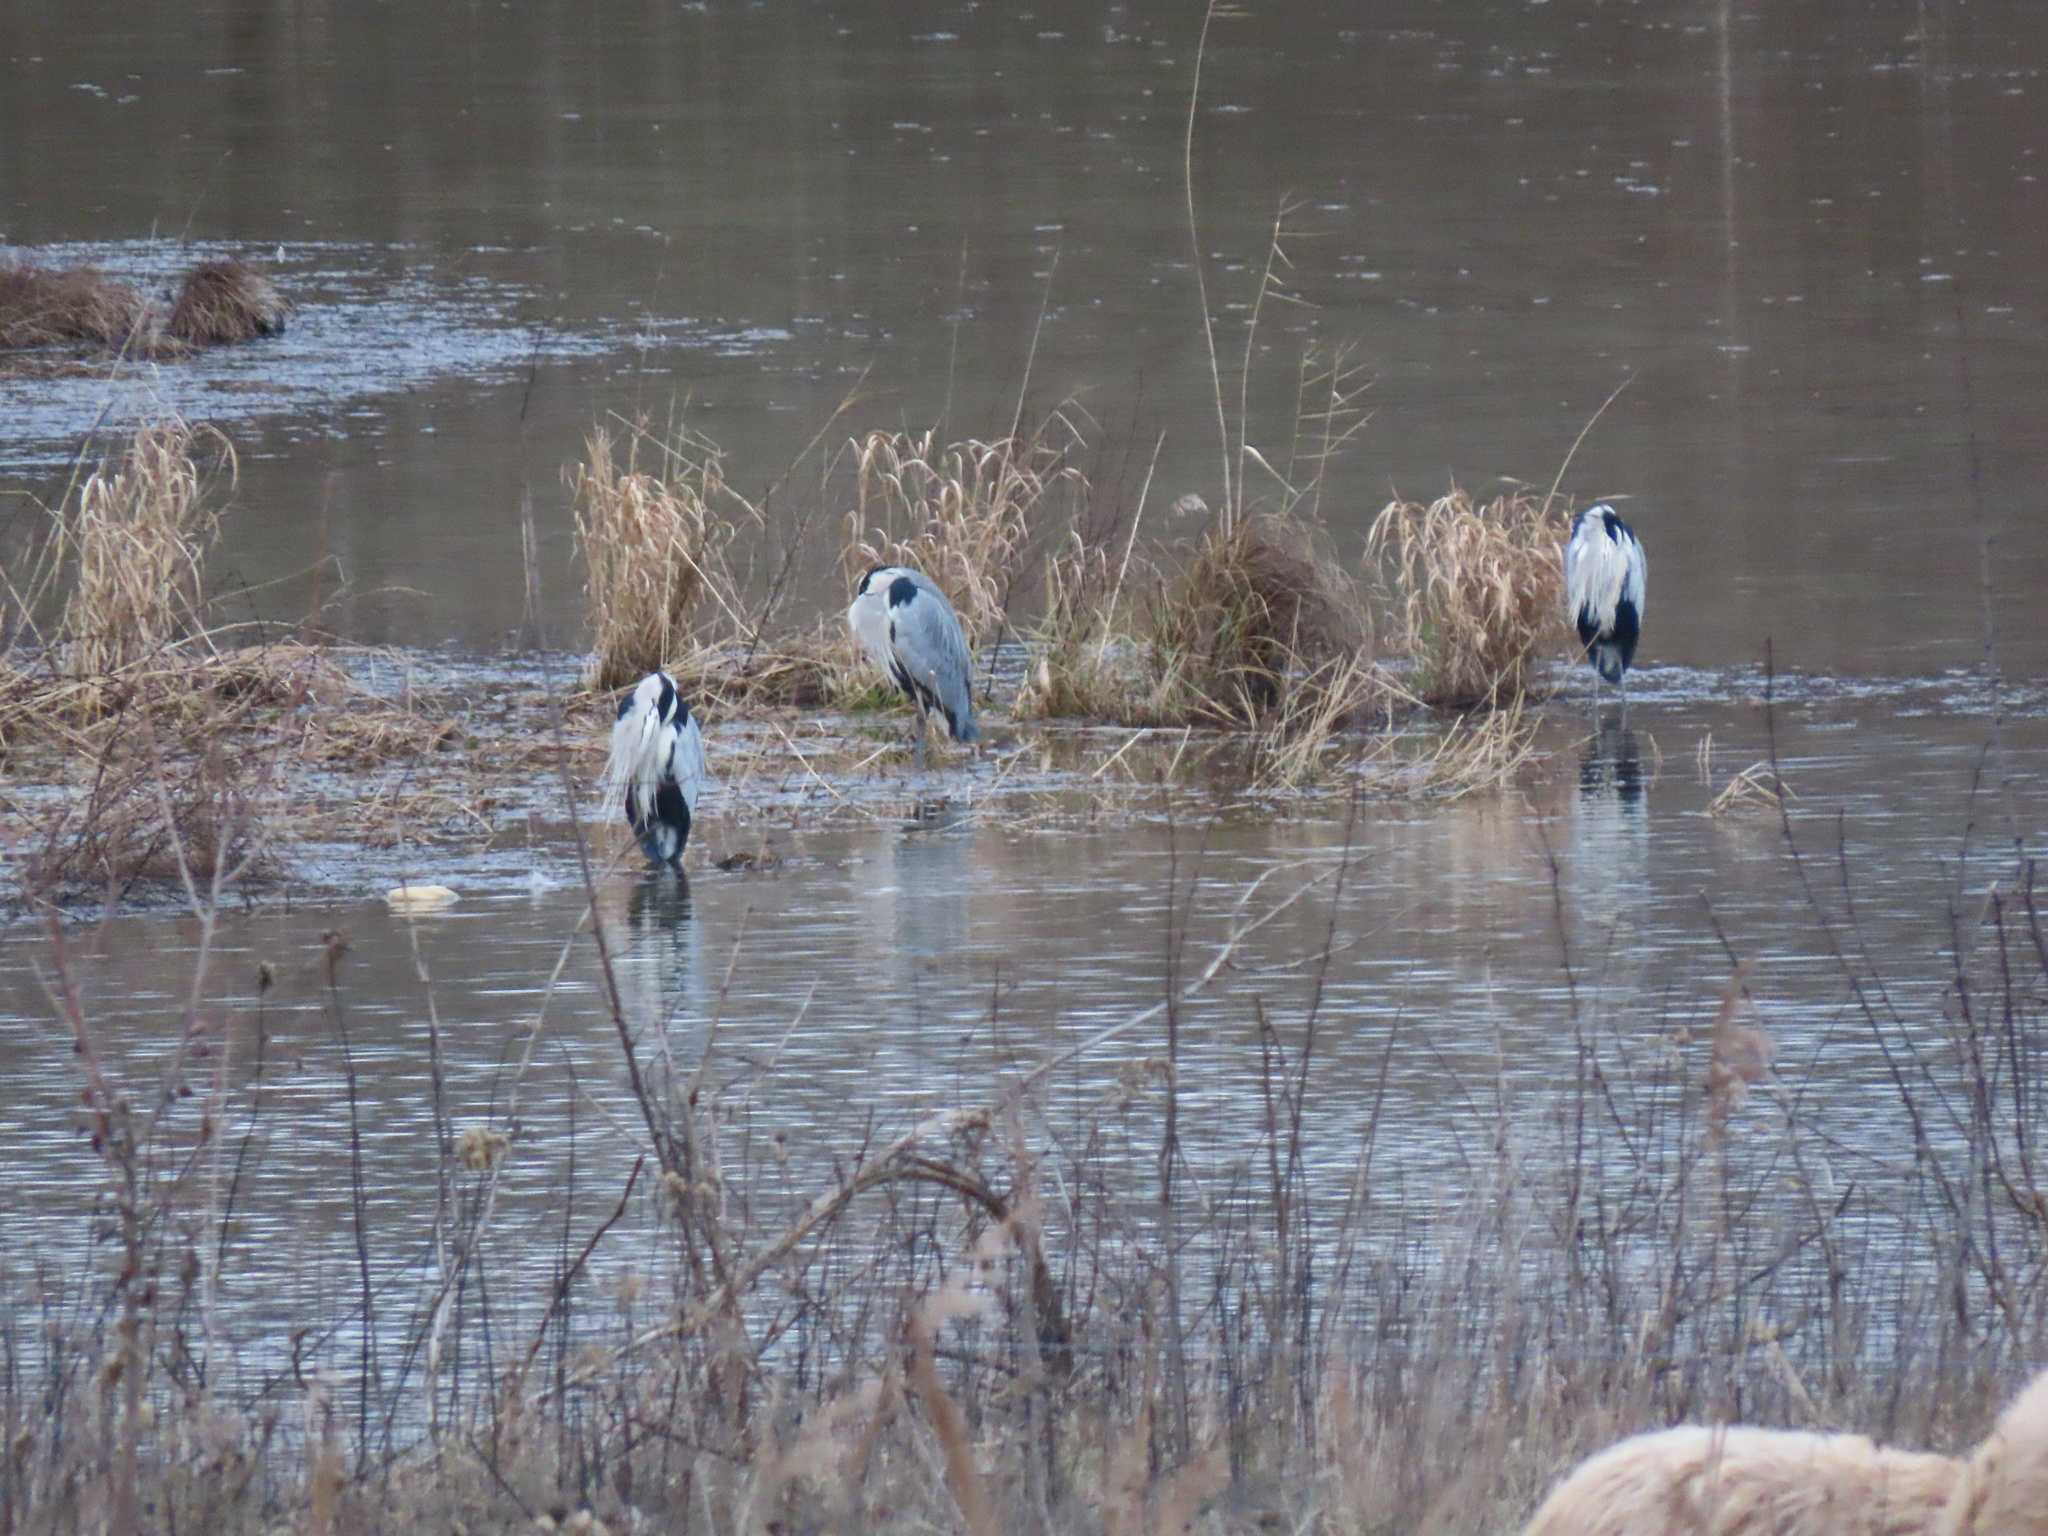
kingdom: Animalia
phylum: Chordata
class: Aves
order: Pelecaniformes
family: Ardeidae
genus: Ardea
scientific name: Ardea cinerea
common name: Grey heron
